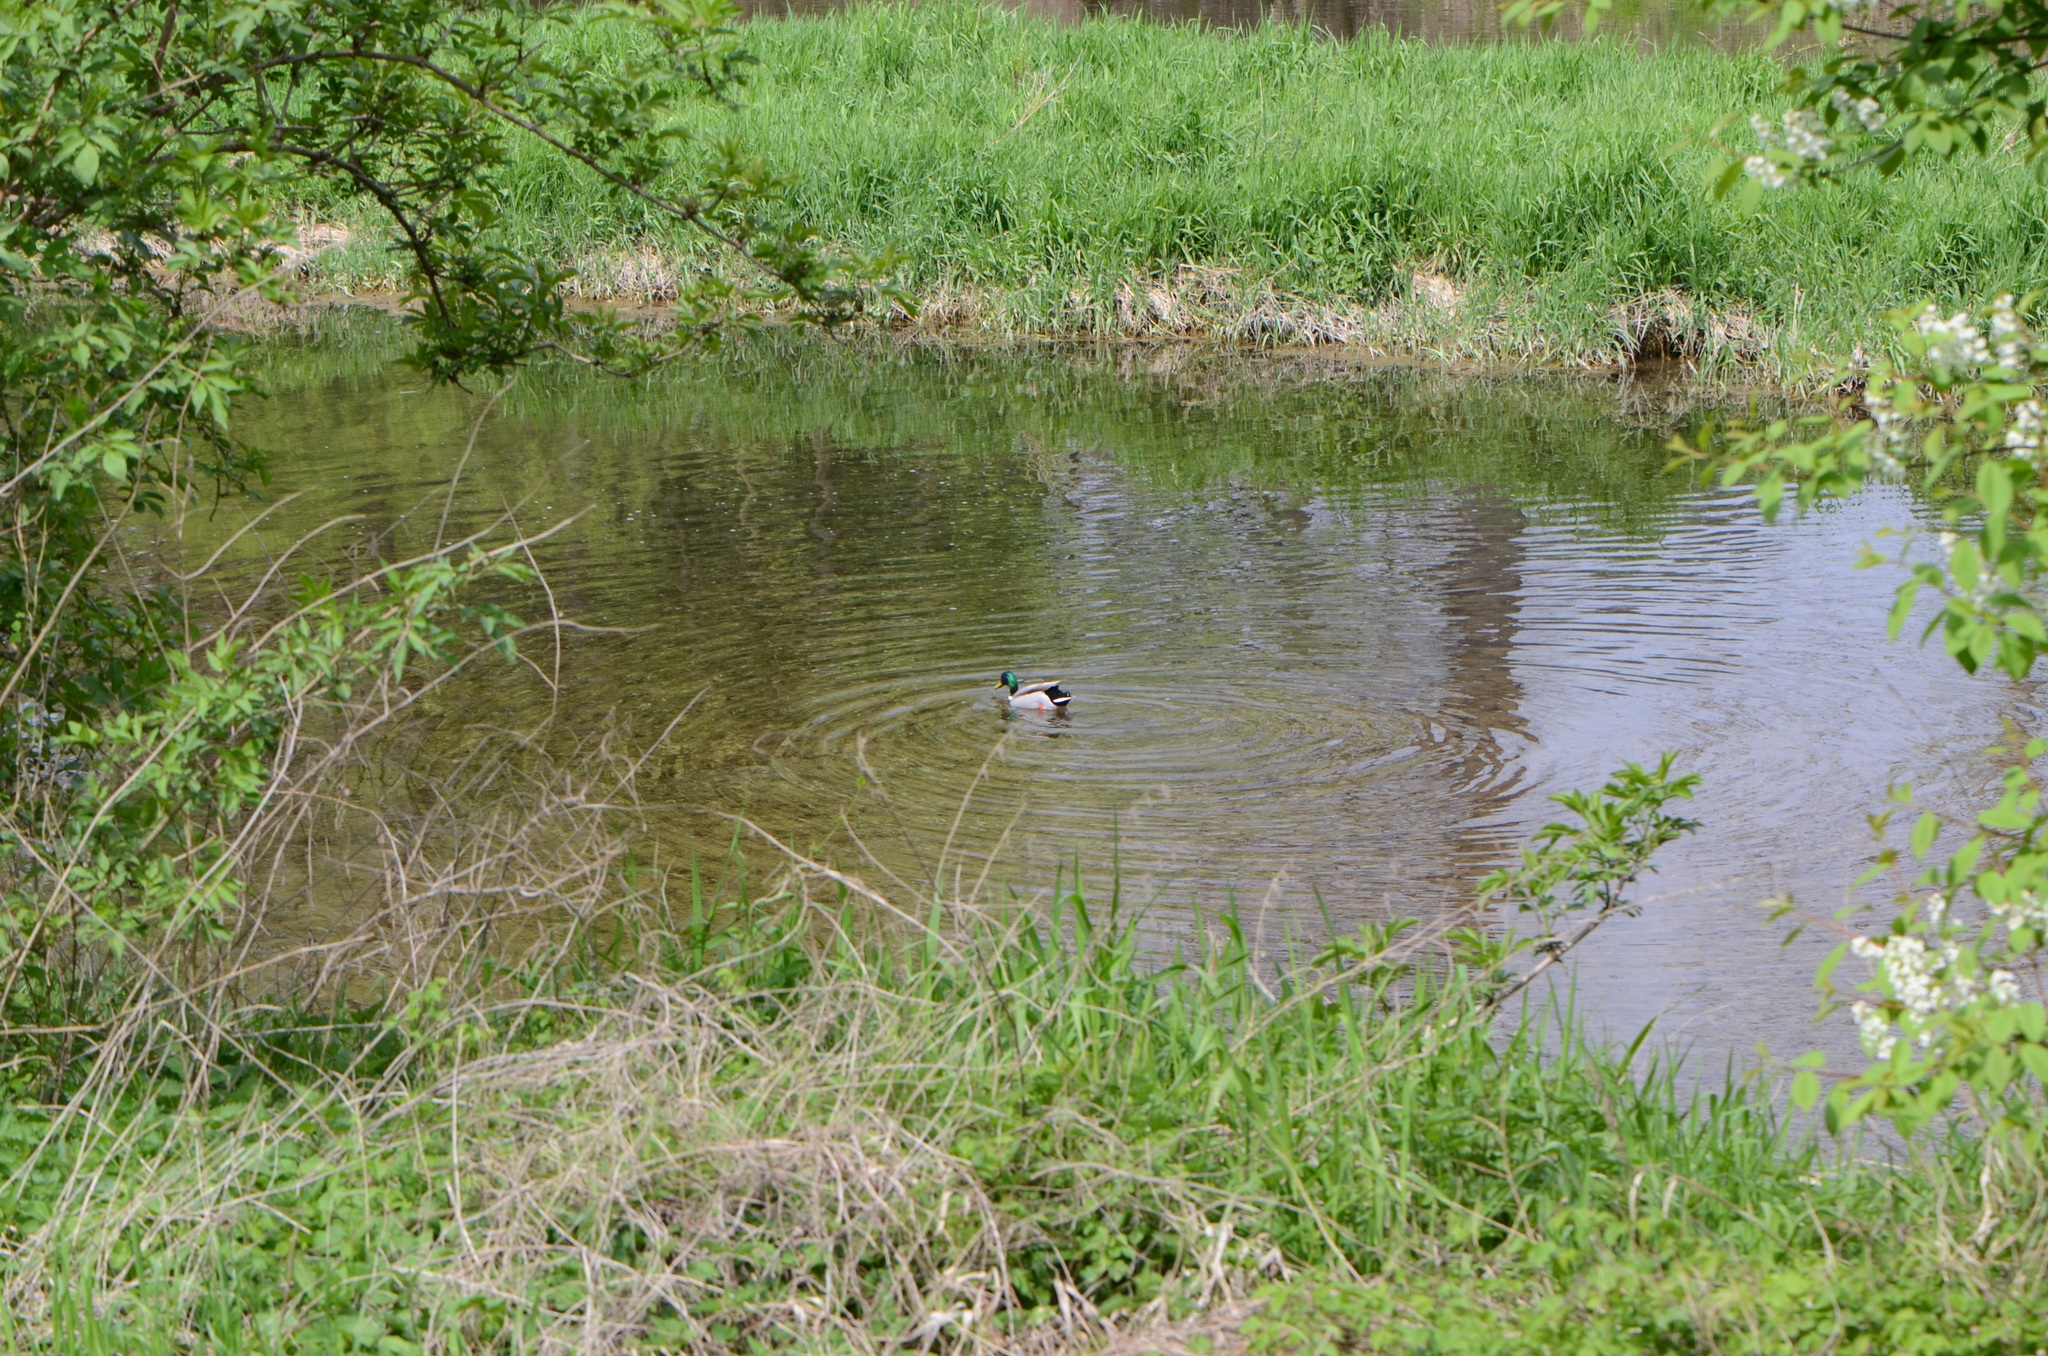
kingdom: Animalia
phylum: Chordata
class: Aves
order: Anseriformes
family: Anatidae
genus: Anas
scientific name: Anas platyrhynchos
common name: Mallard
